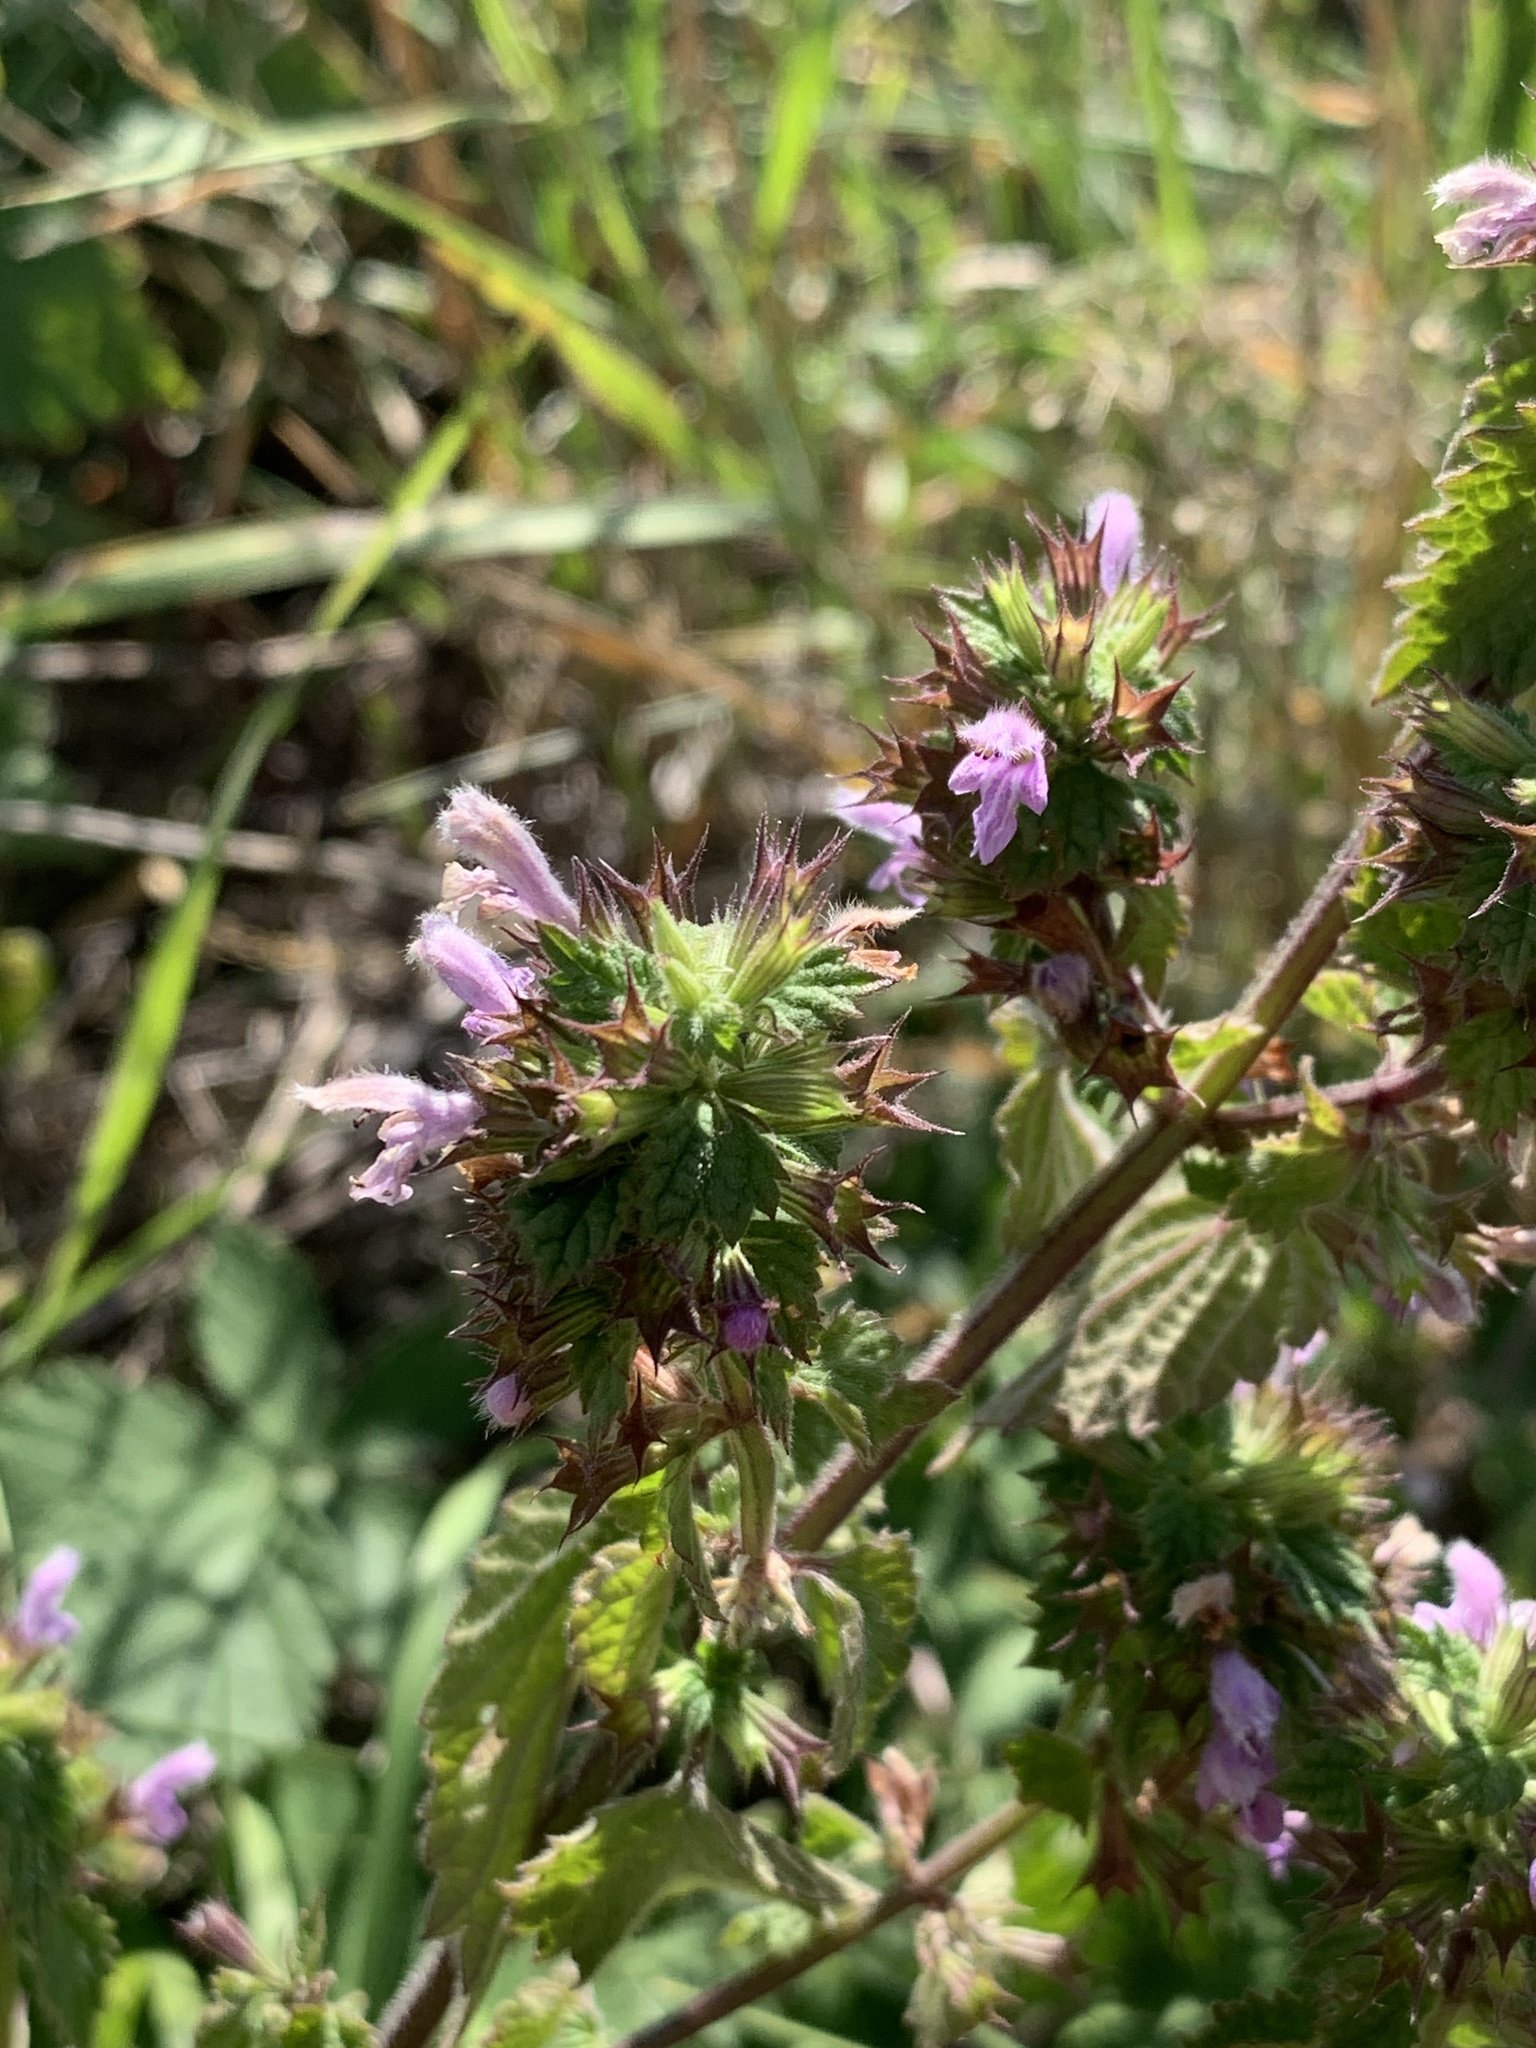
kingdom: Plantae
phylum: Tracheophyta
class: Magnoliopsida
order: Lamiales
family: Lamiaceae
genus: Ballota
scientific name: Ballota nigra
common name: Black horehound
